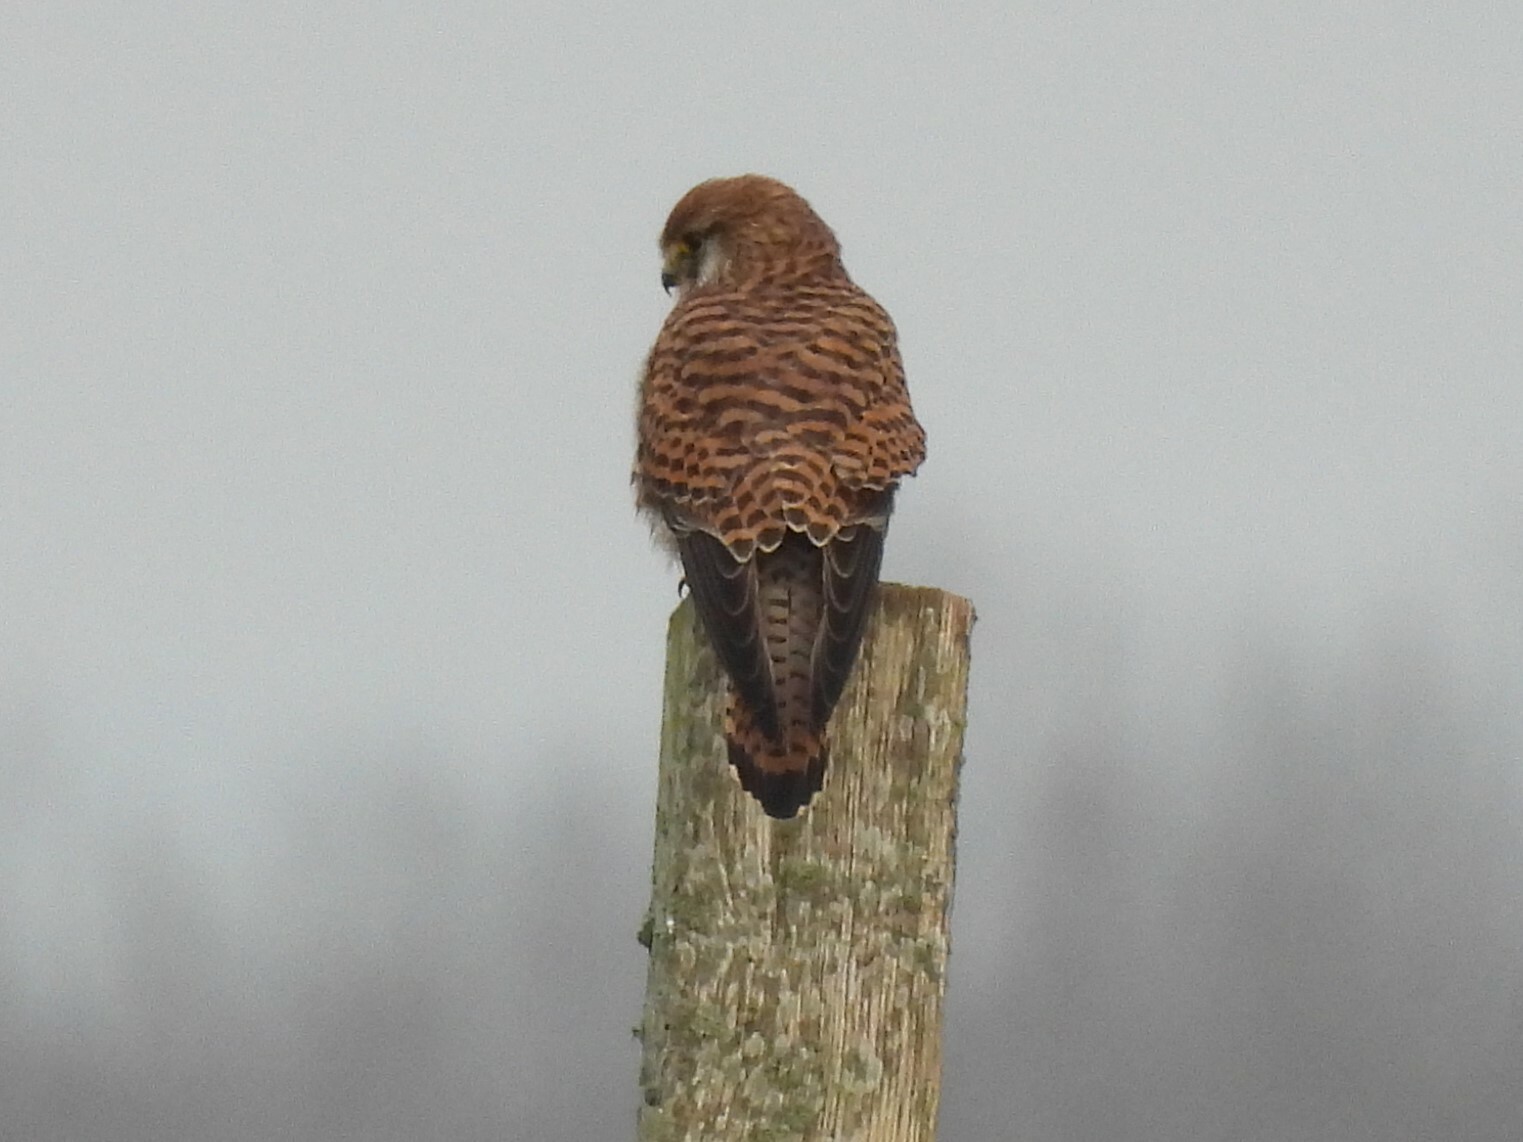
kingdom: Animalia
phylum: Chordata
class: Aves
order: Falconiformes
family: Falconidae
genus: Falco
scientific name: Falco tinnunculus
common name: Common kestrel
